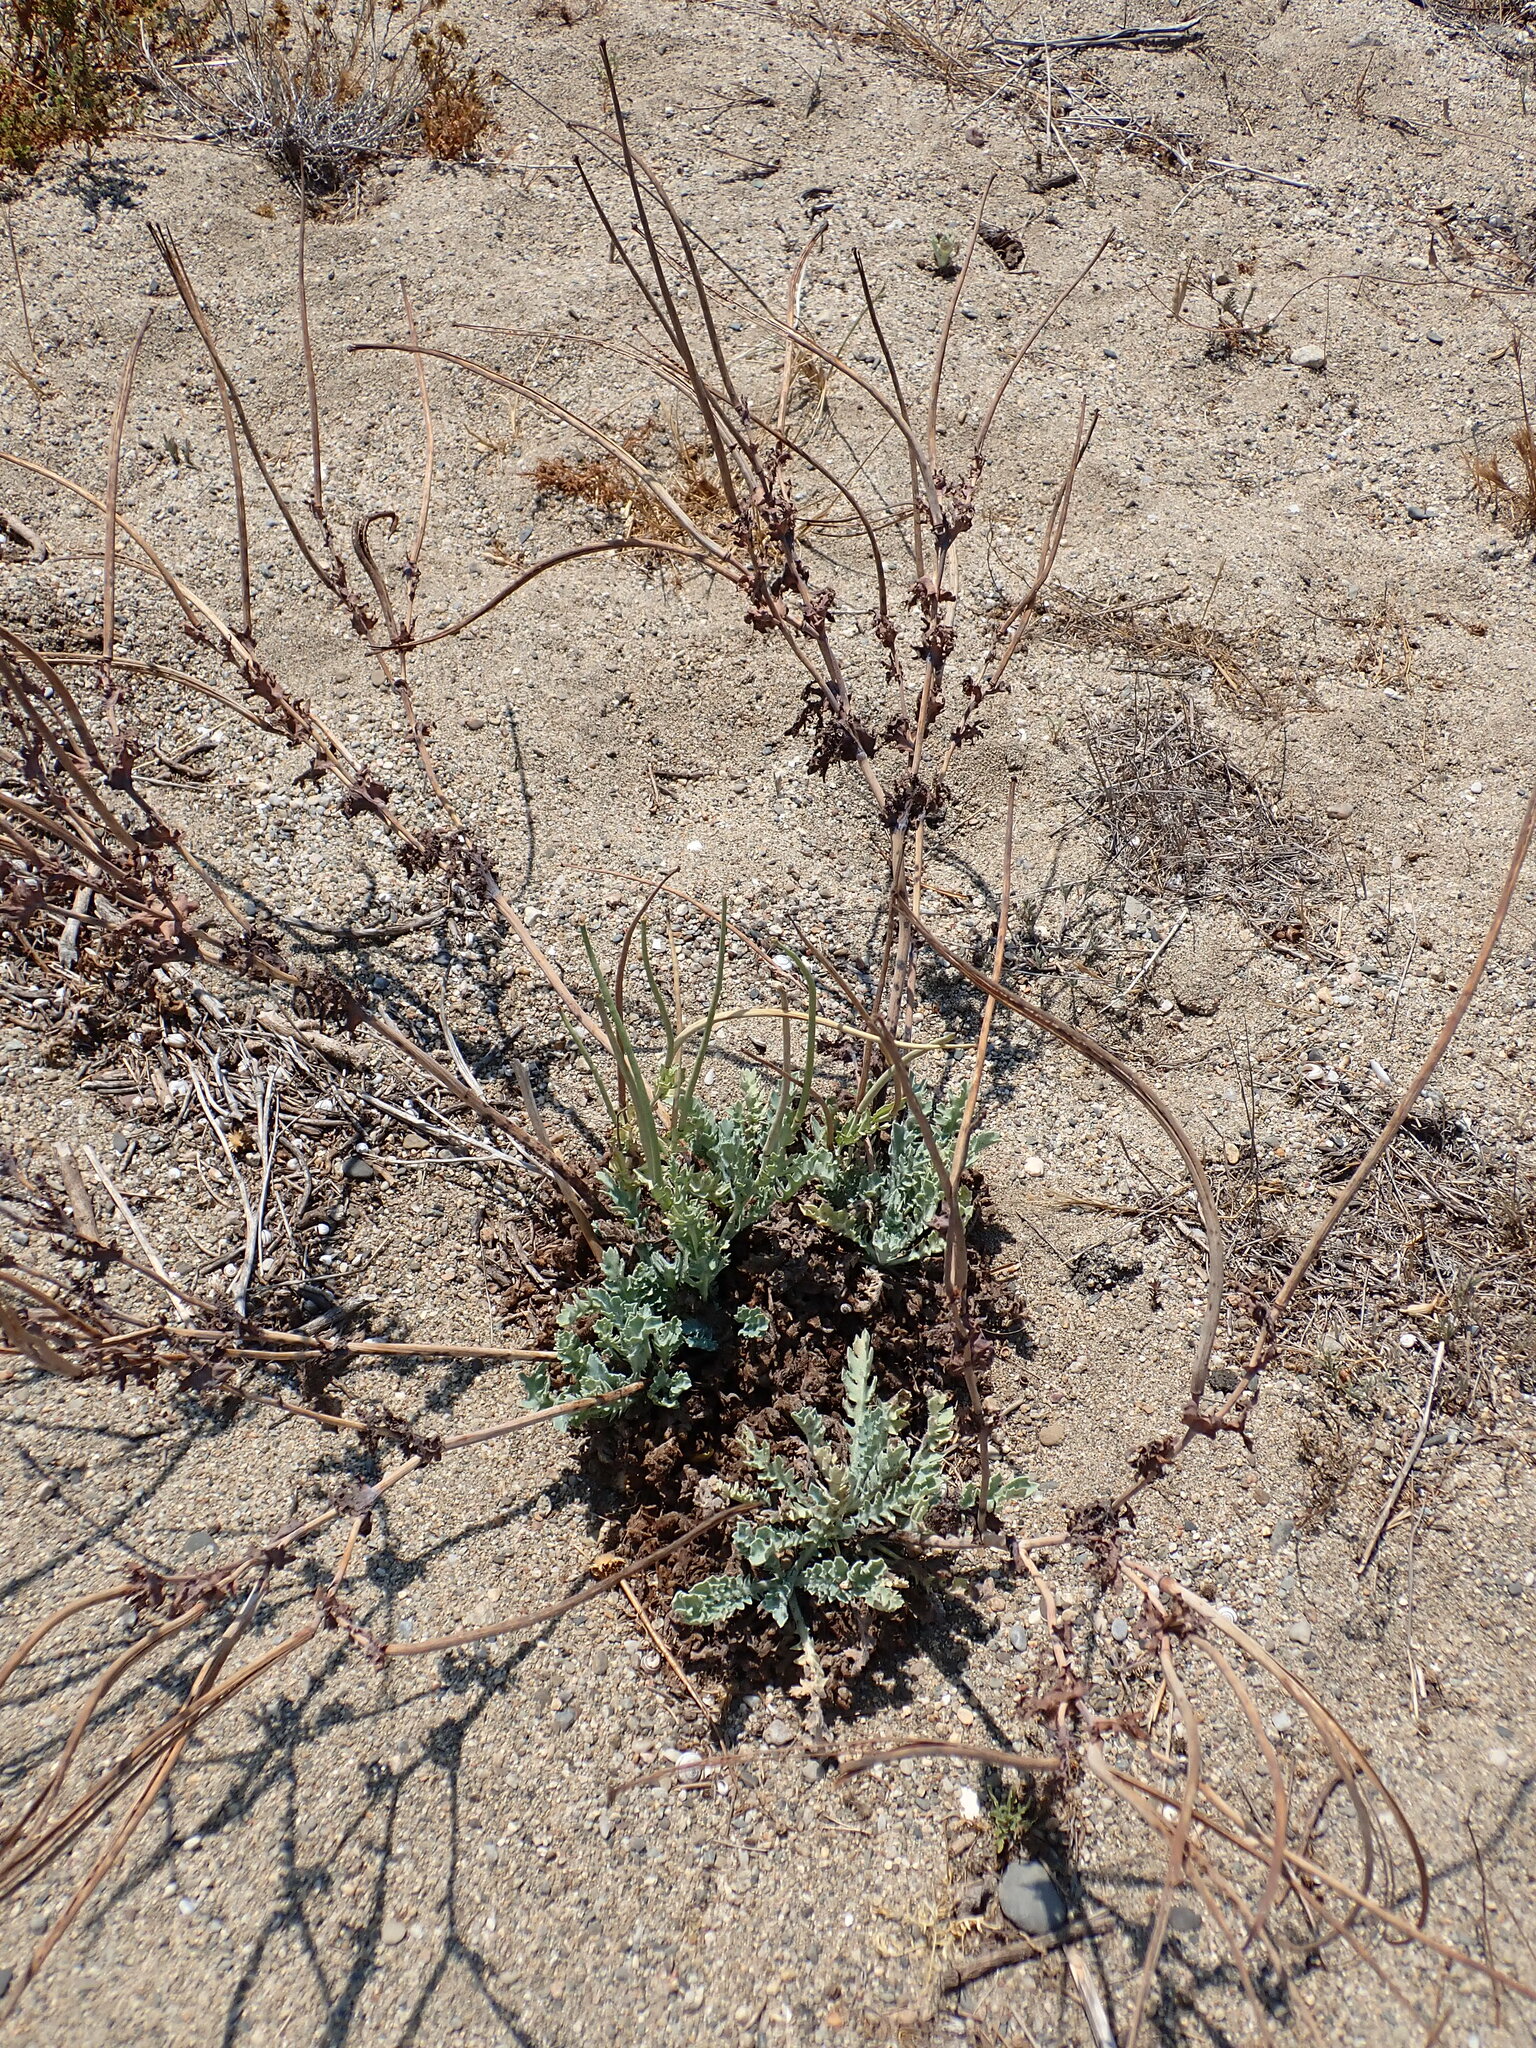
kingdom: Plantae
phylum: Tracheophyta
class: Magnoliopsida
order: Ranunculales
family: Papaveraceae
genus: Glaucium
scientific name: Glaucium flavum
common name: Yellow horned-poppy
